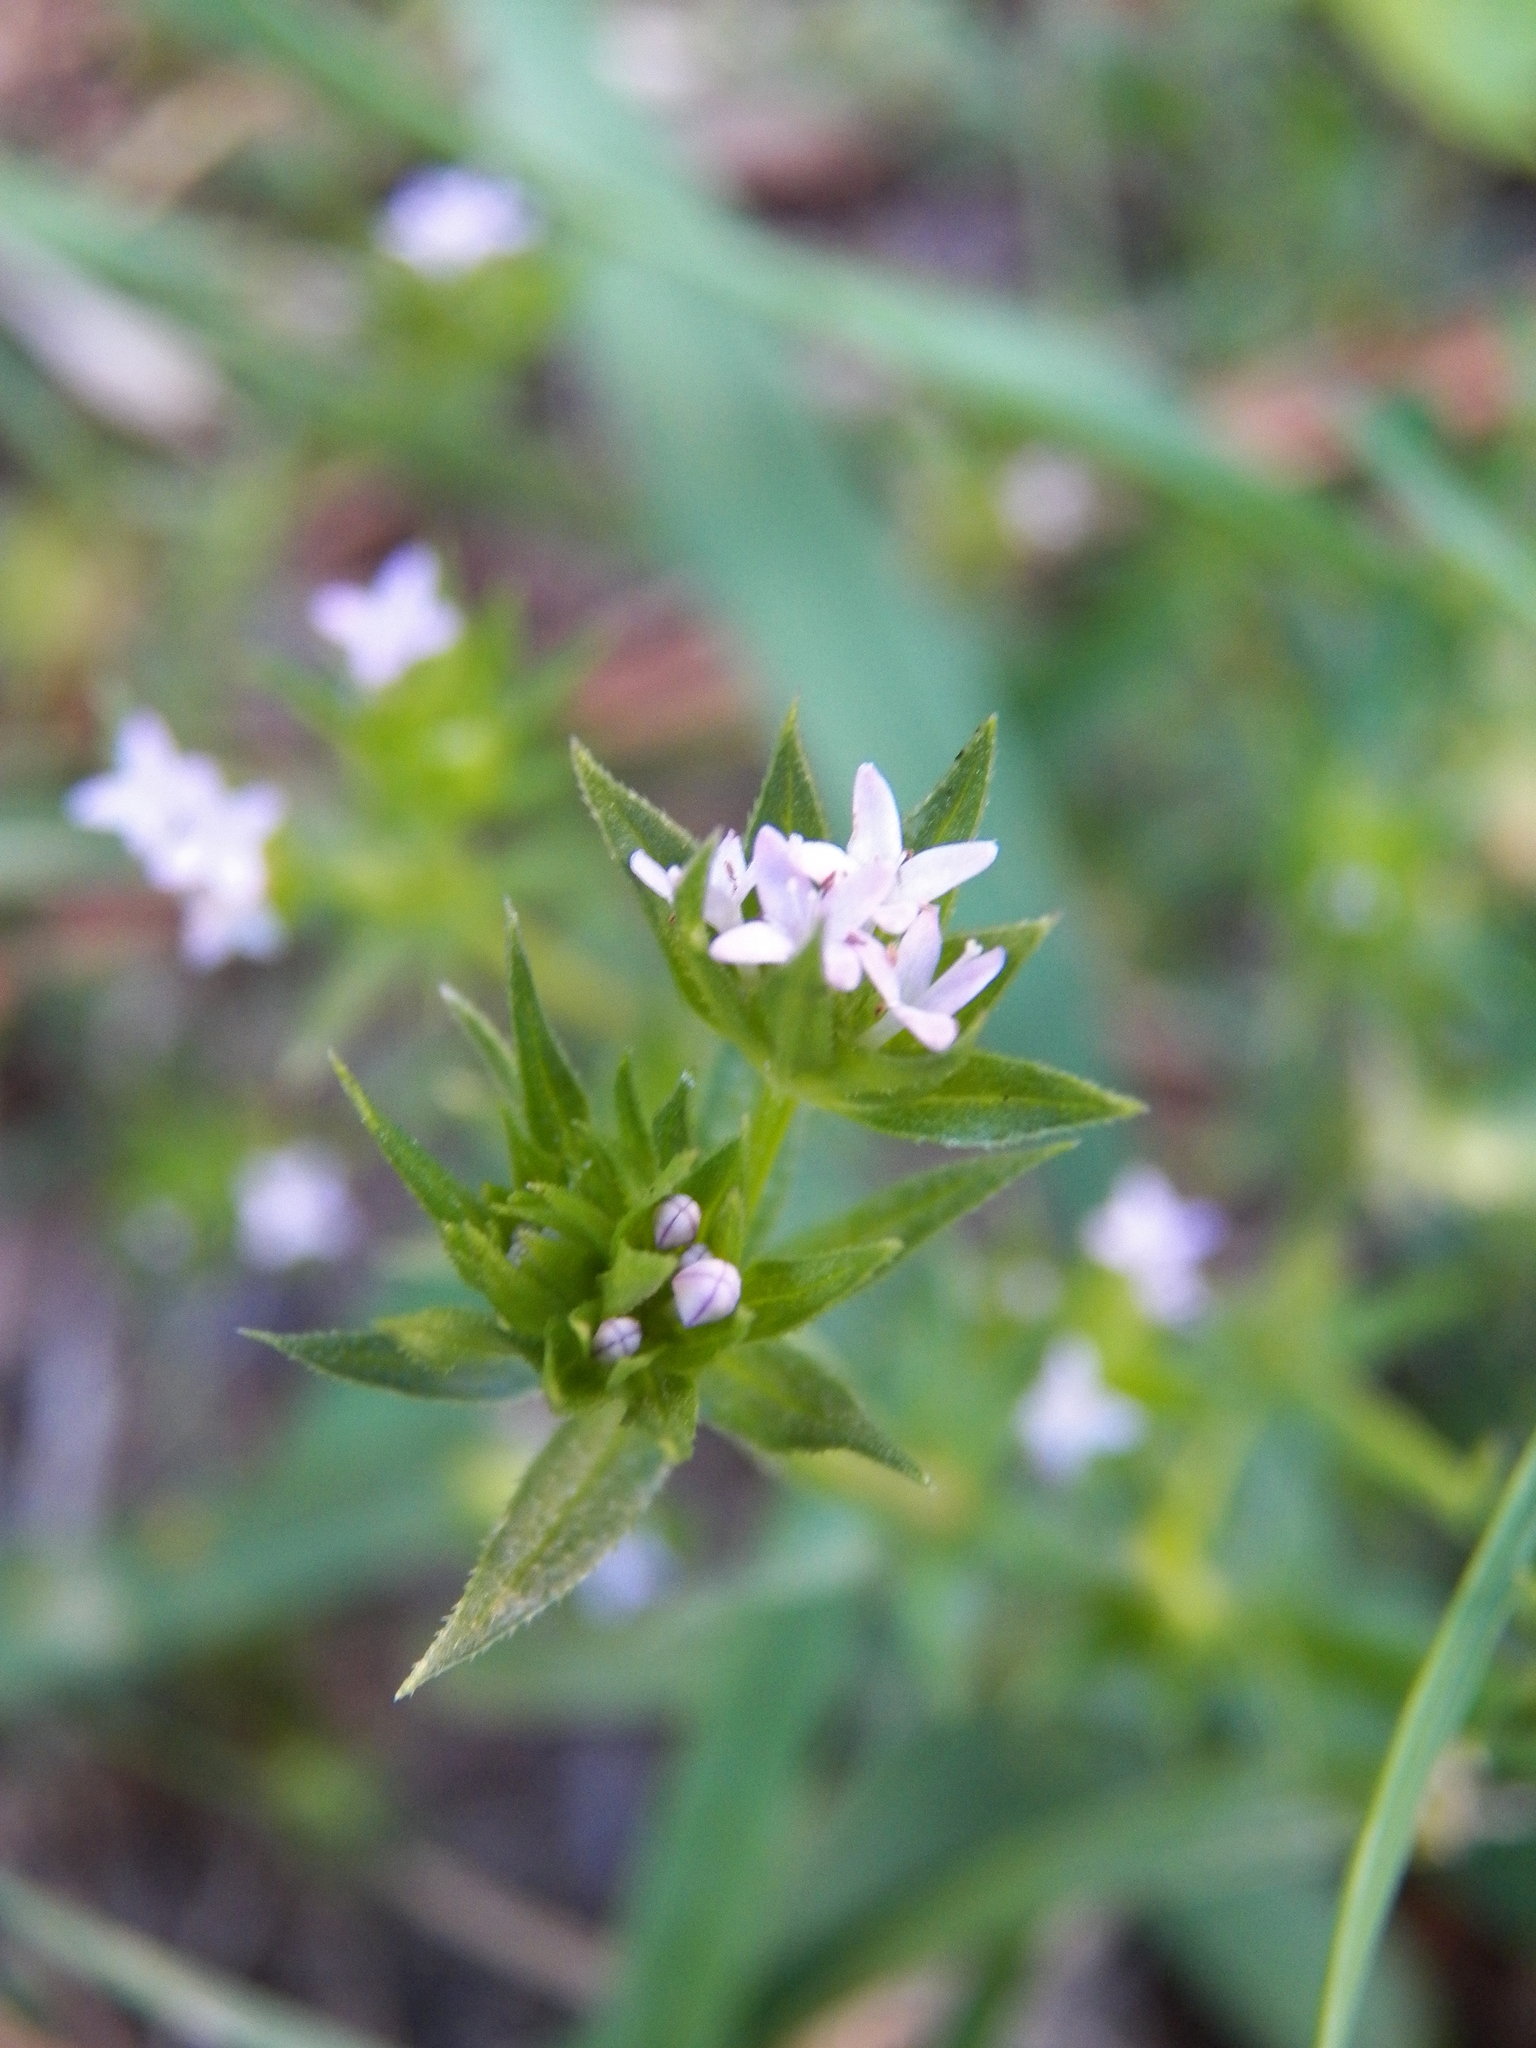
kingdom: Plantae
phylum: Tracheophyta
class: Magnoliopsida
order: Gentianales
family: Rubiaceae
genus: Sherardia
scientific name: Sherardia arvensis
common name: Field madder
